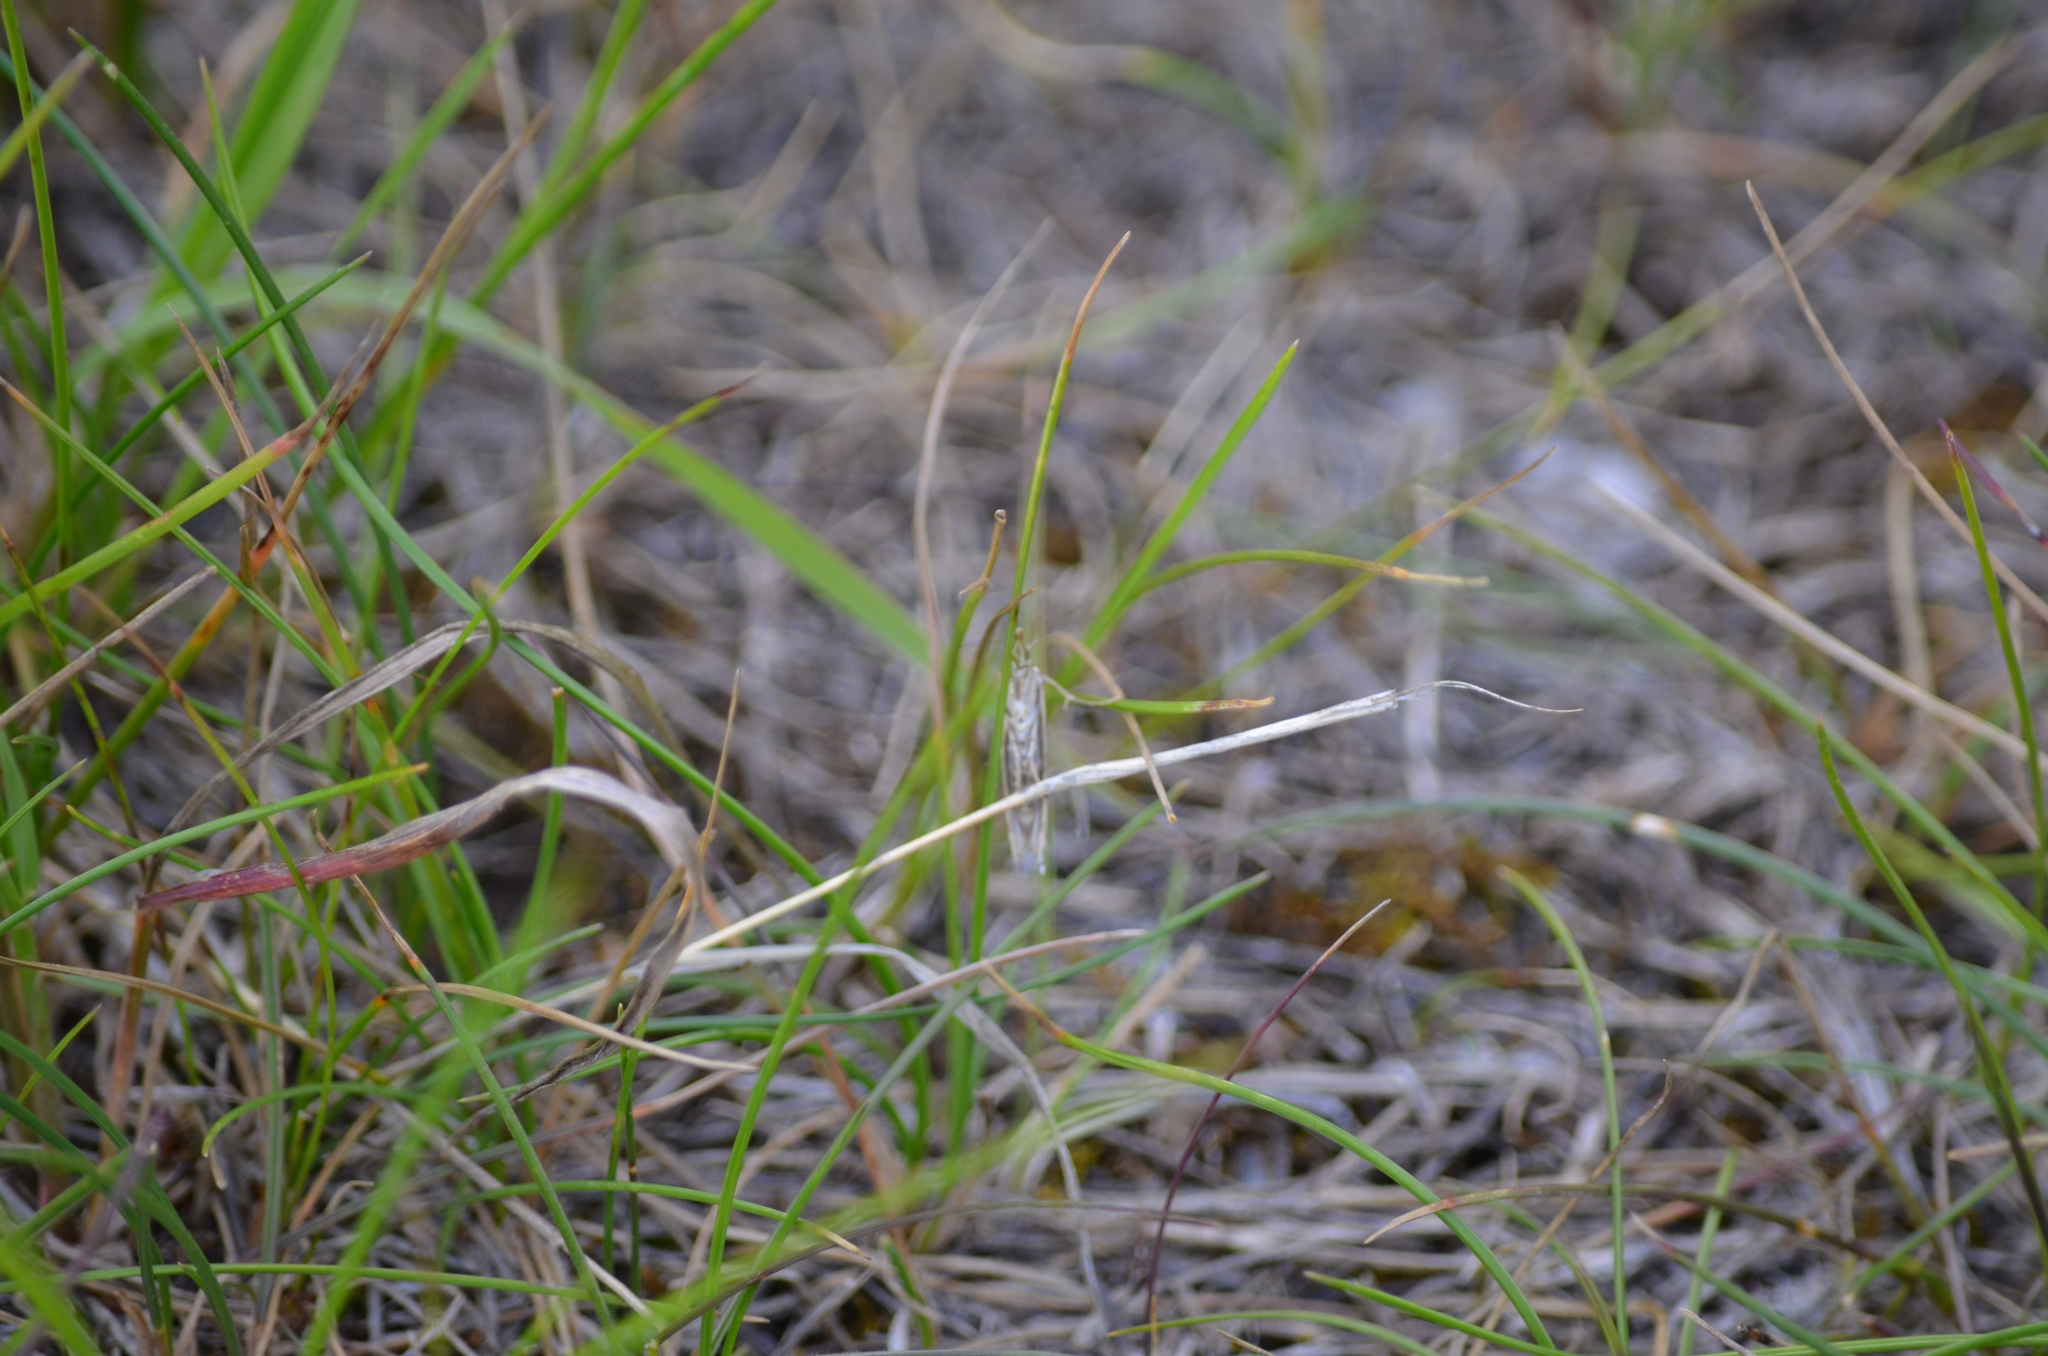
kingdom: Animalia
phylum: Arthropoda
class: Insecta
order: Lepidoptera
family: Crambidae
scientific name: Crambidae
